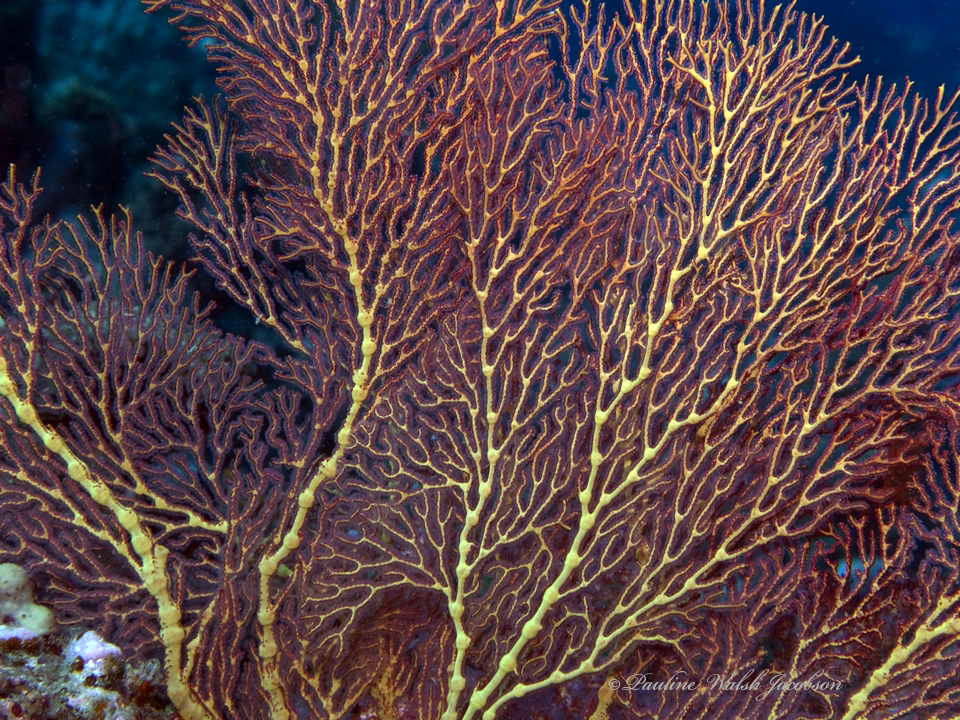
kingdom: Animalia
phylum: Cnidaria
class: Anthozoa
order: Malacalcyonacea
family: Melithaeidae
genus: Melithaea
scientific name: Melithaea ochracea
